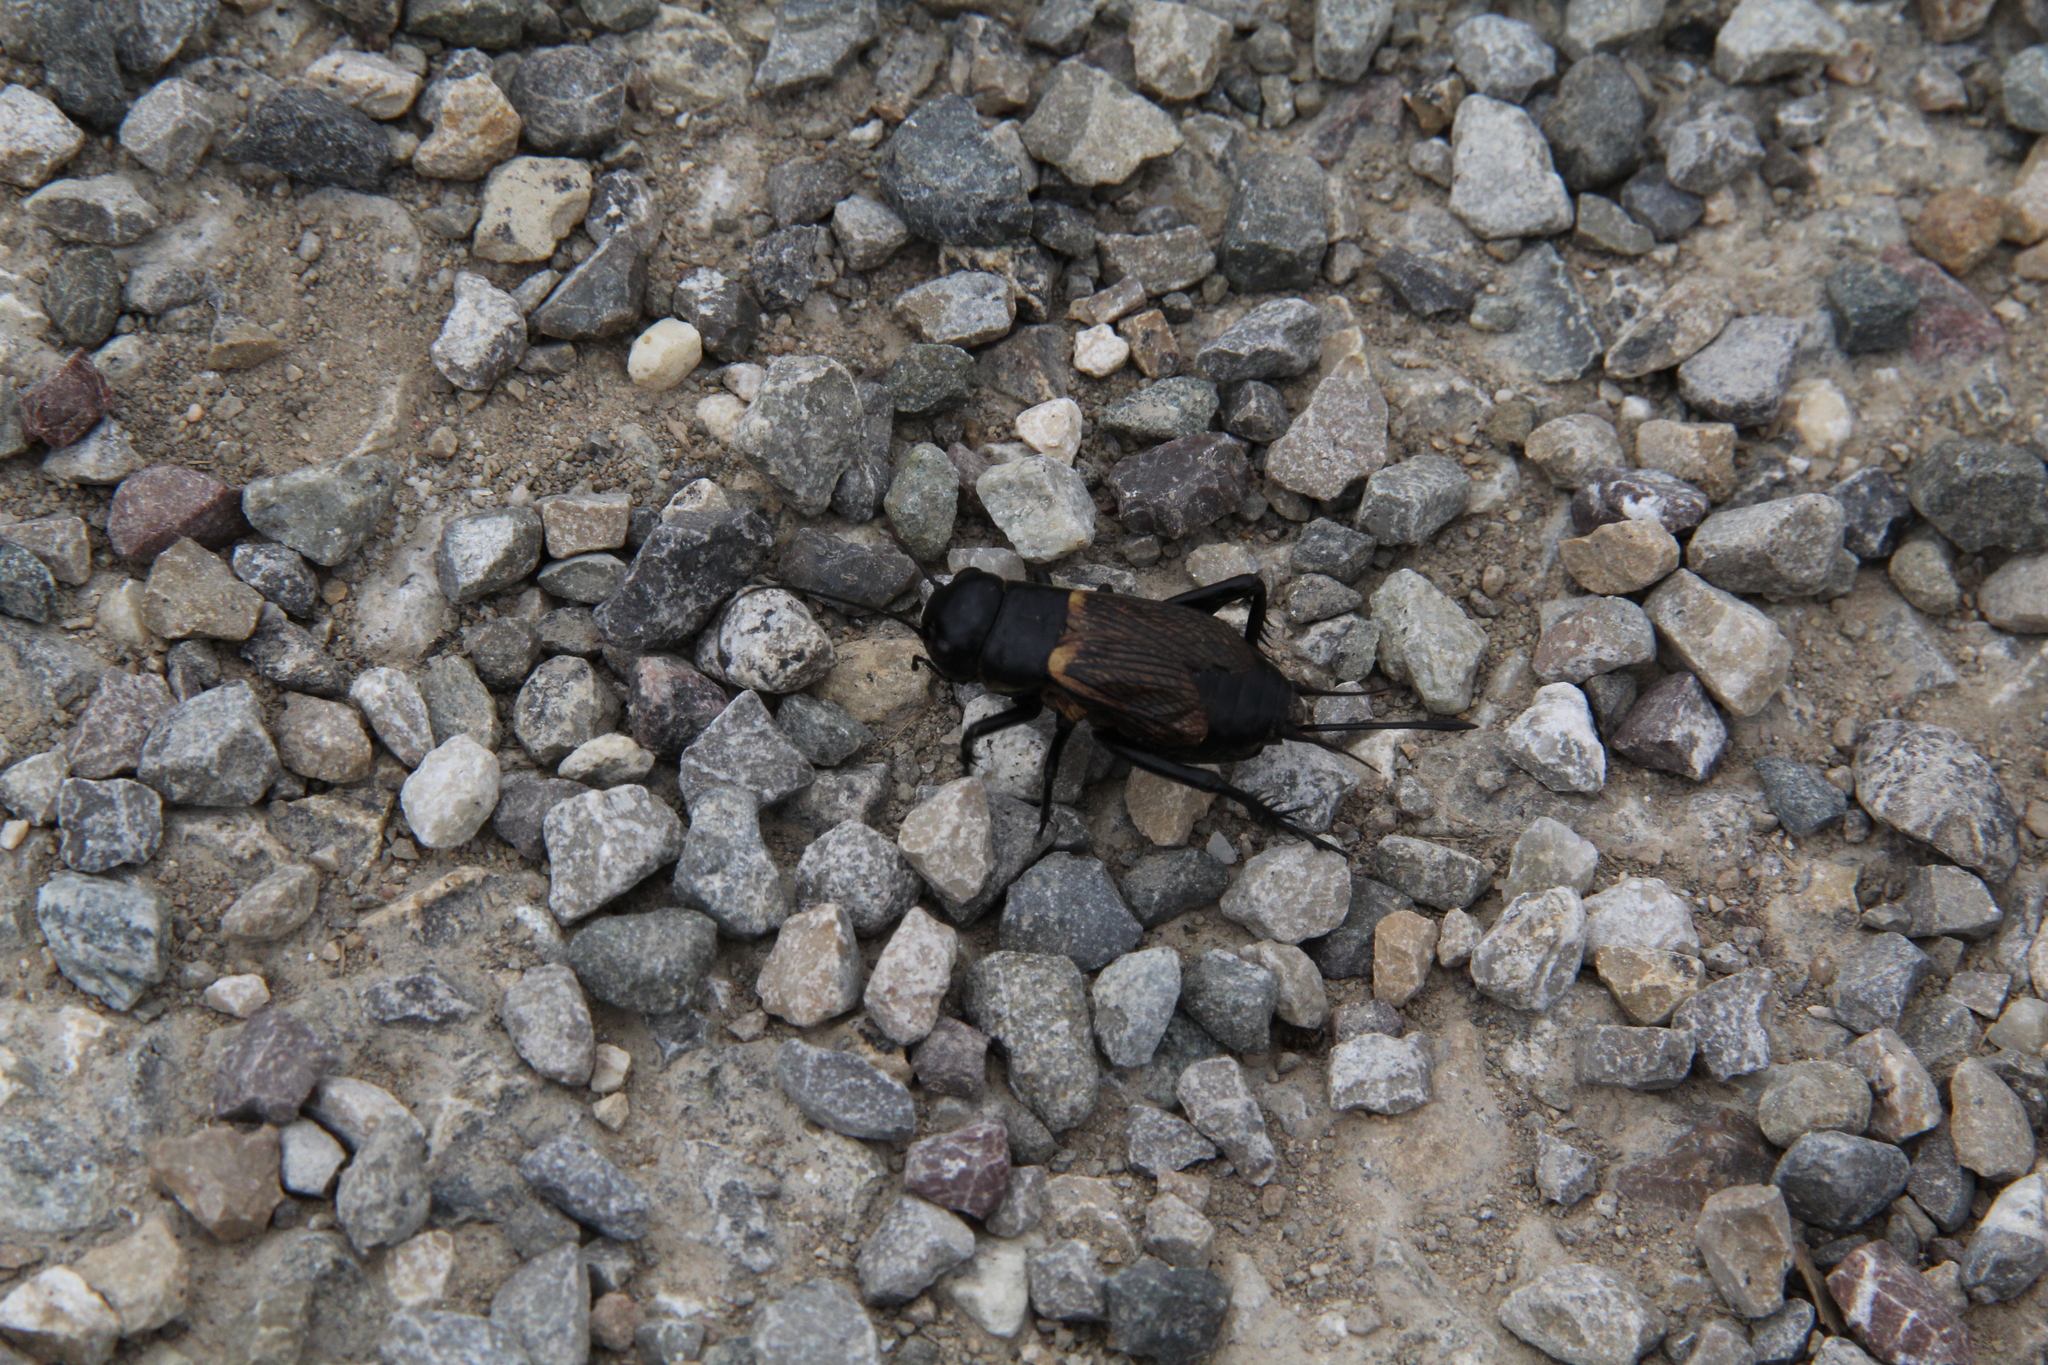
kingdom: Animalia
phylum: Arthropoda
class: Insecta
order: Orthoptera
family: Gryllidae
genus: Gryllus
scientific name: Gryllus campestris
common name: Field cricket
